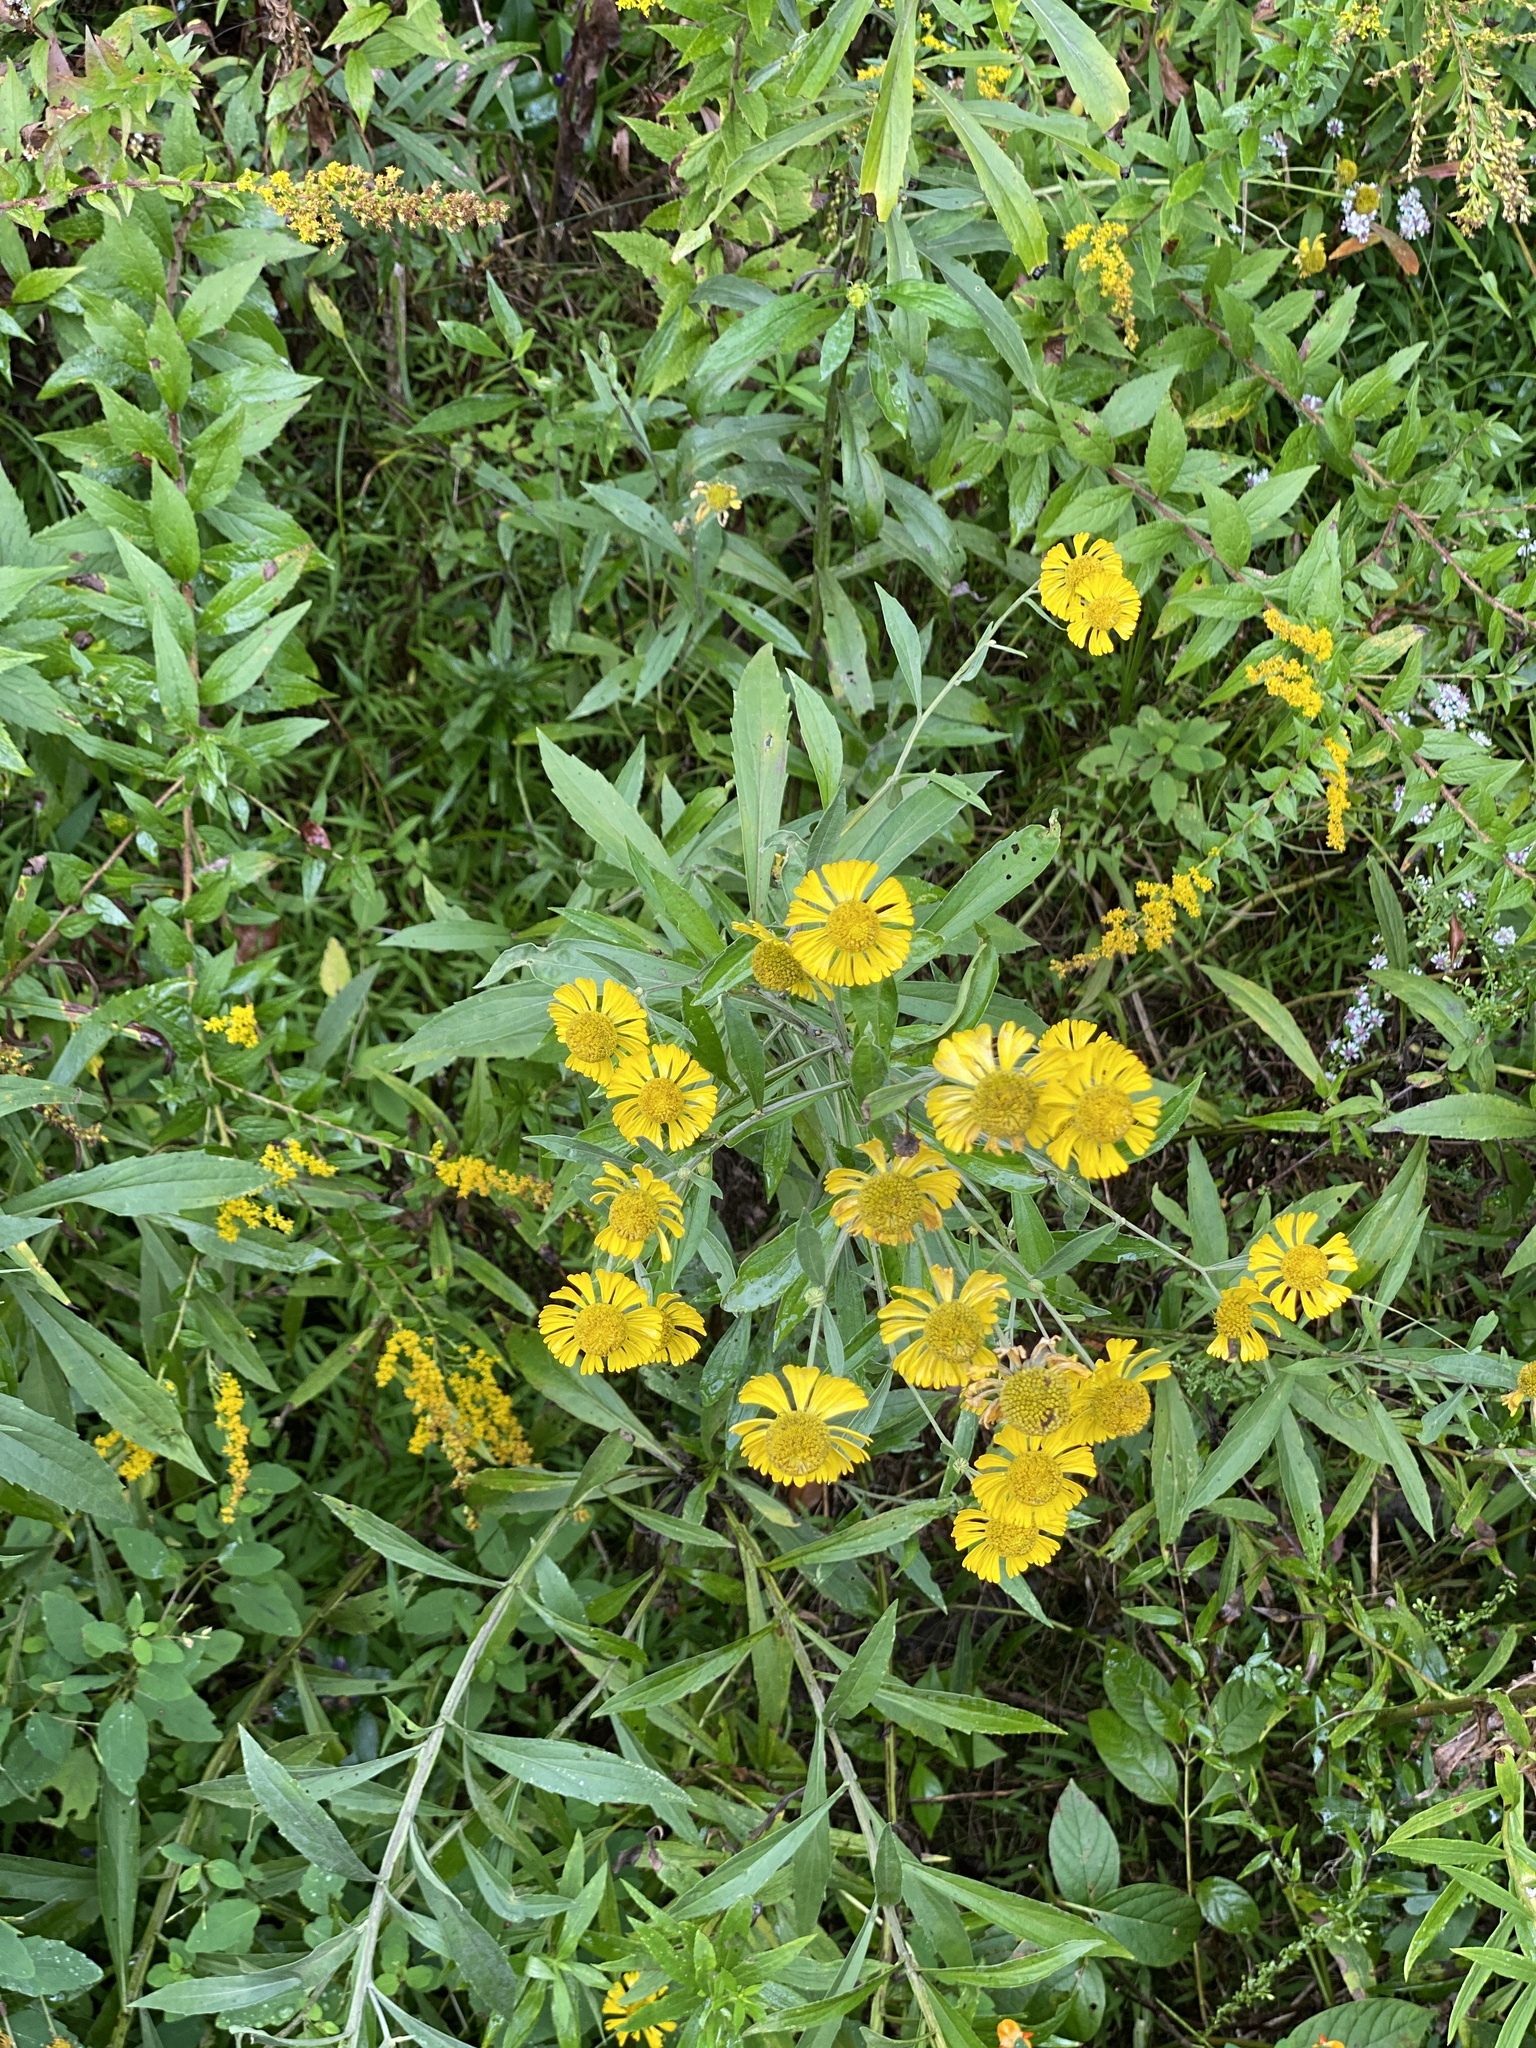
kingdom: Plantae
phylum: Tracheophyta
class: Magnoliopsida
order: Asterales
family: Asteraceae
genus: Helenium
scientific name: Helenium autumnale
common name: Sneezeweed
